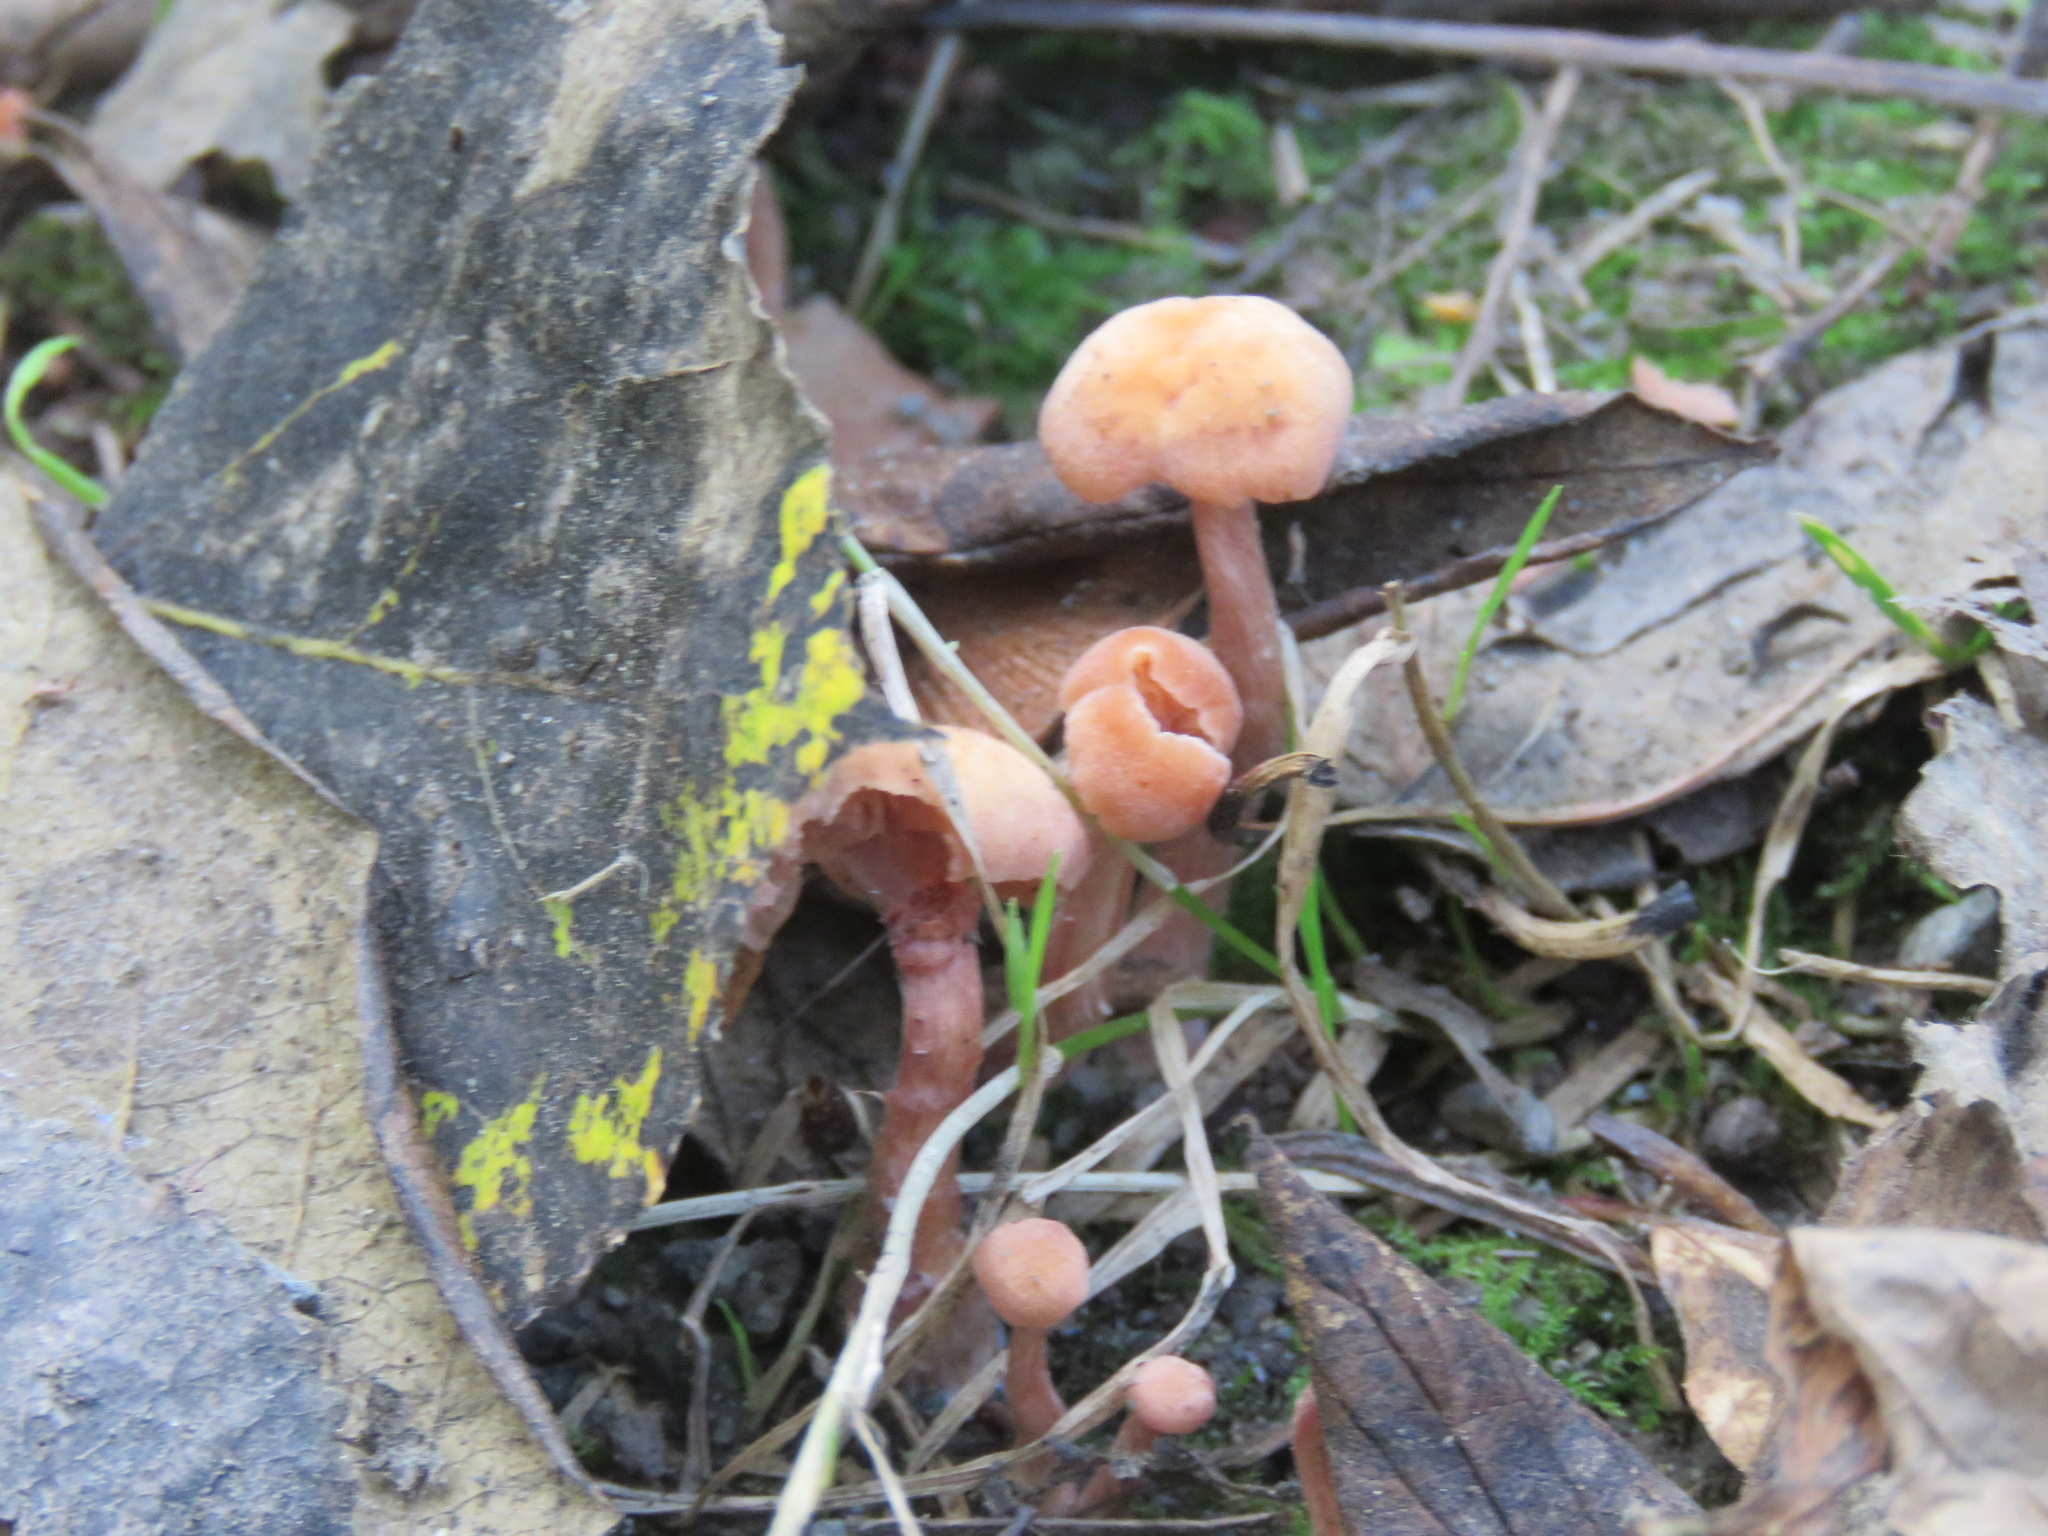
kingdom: Fungi
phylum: Basidiomycota
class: Agaricomycetes
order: Agaricales
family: Hydnangiaceae
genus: Laccaria
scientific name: Laccaria laccata
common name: Deceiver
